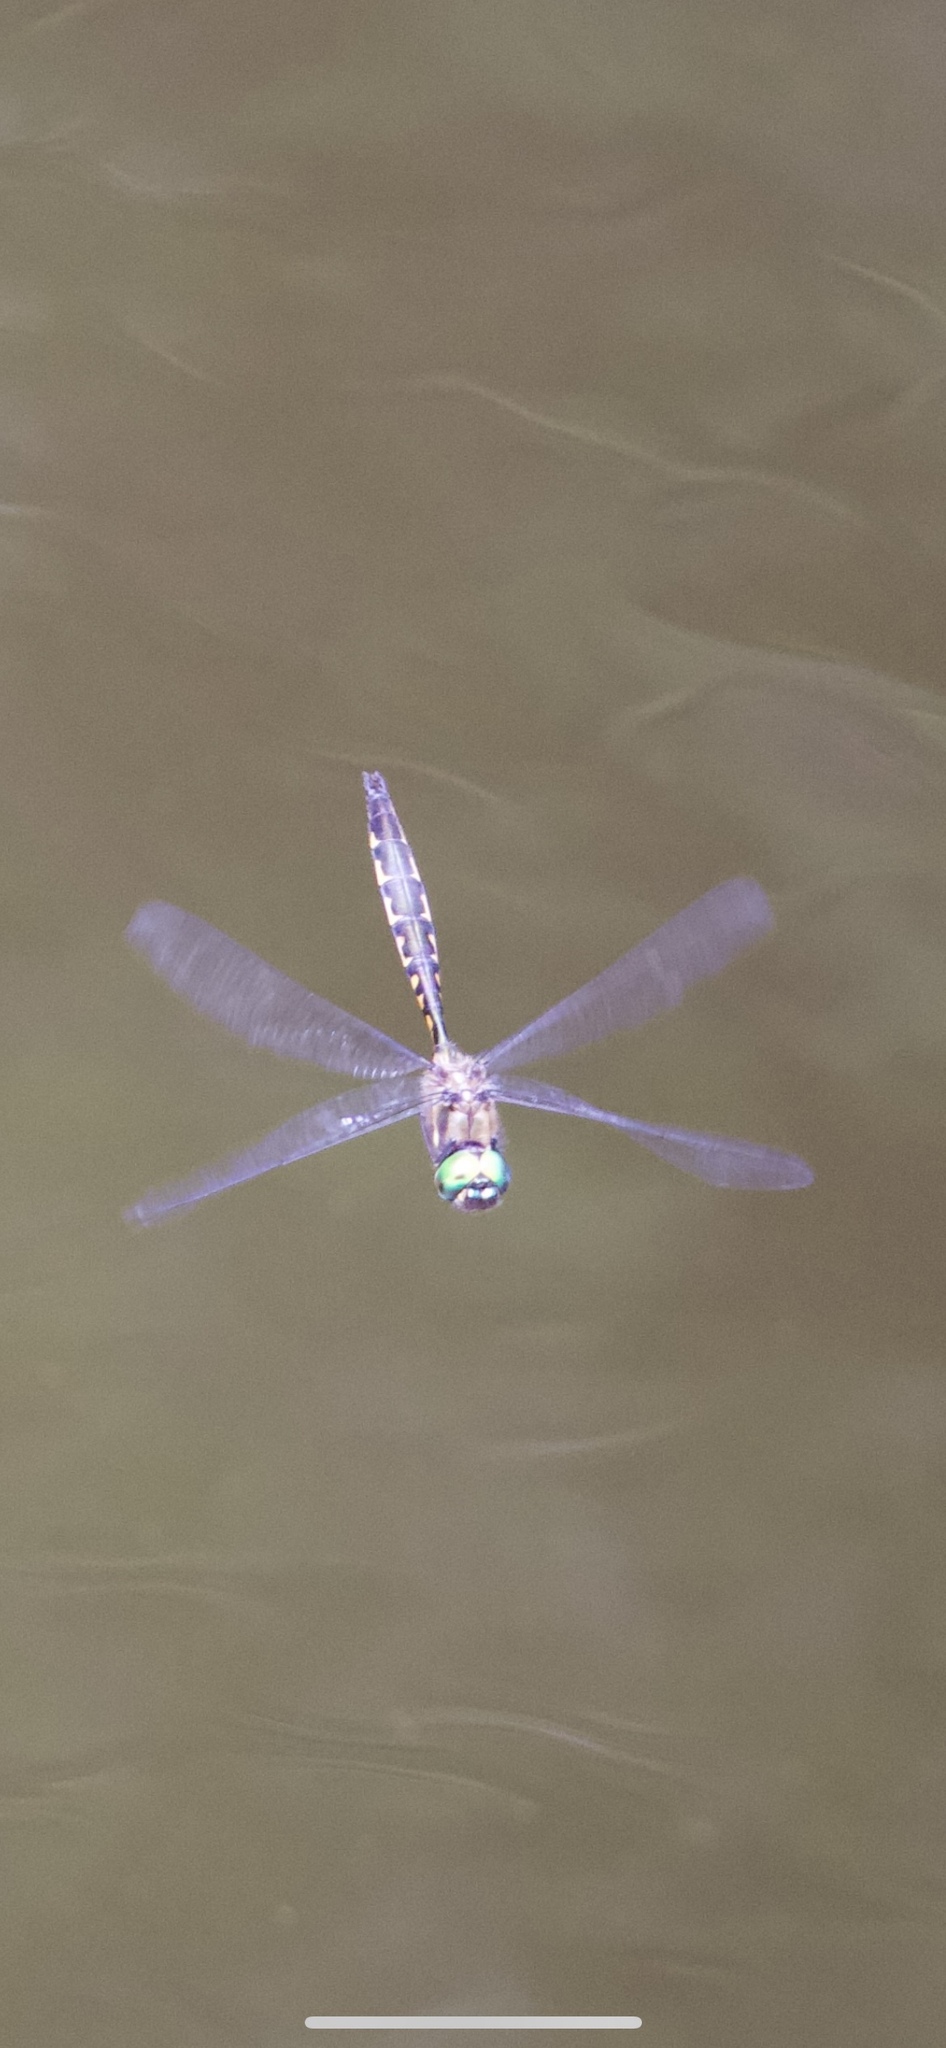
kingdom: Animalia
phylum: Arthropoda
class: Insecta
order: Odonata
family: Corduliidae
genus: Hemicordulia
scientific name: Hemicordulia armstrongi
